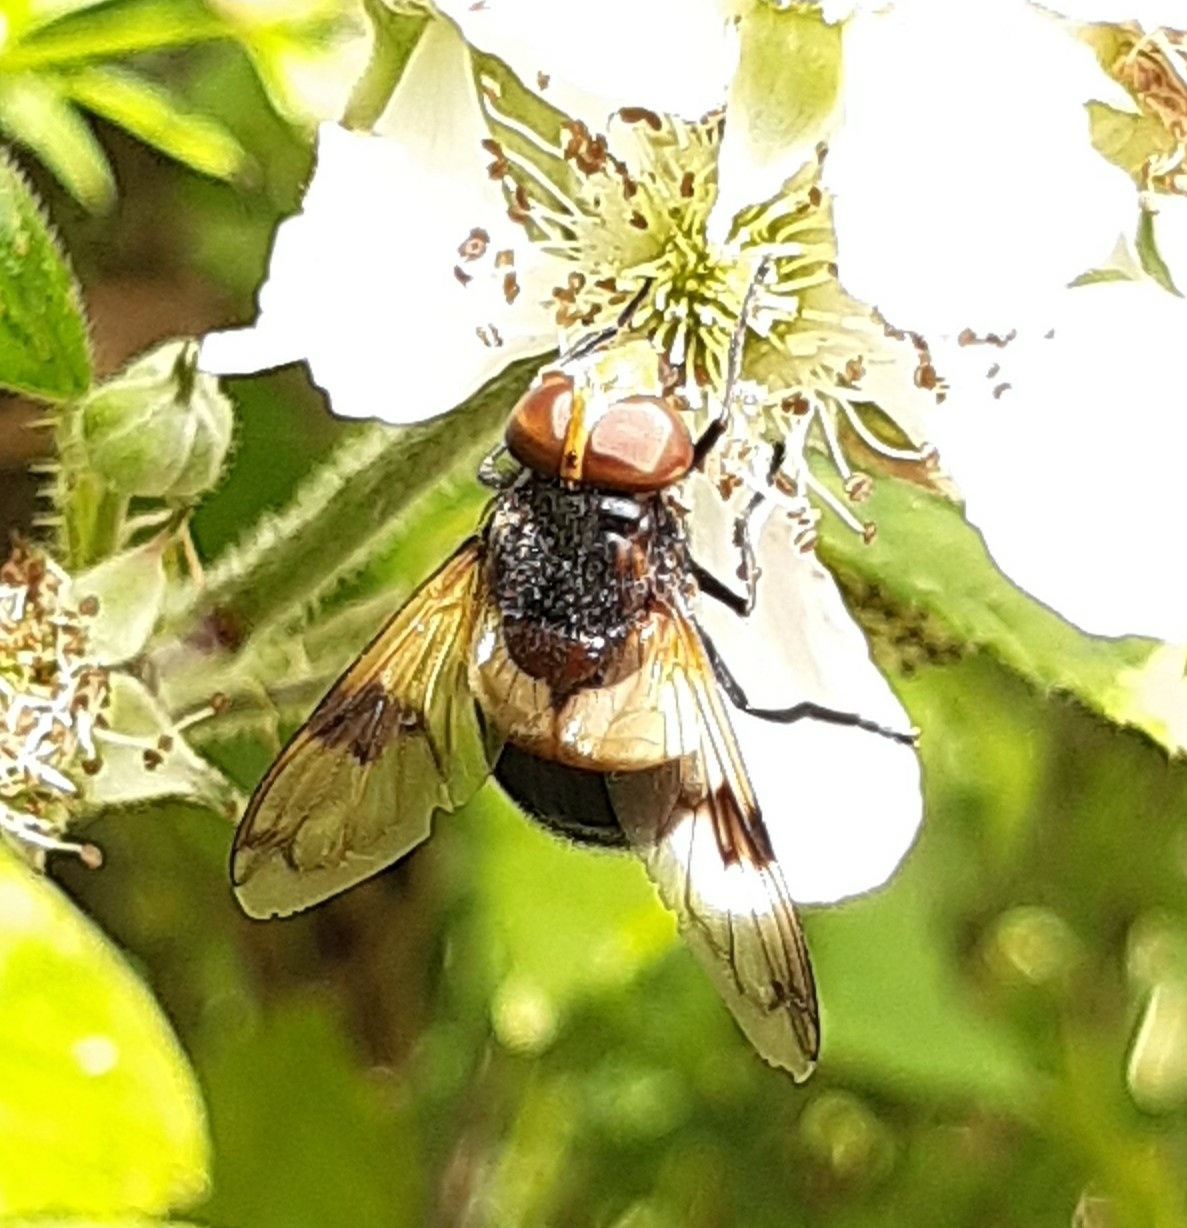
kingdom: Animalia
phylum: Arthropoda
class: Insecta
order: Diptera
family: Syrphidae
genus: Volucella
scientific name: Volucella pellucens
